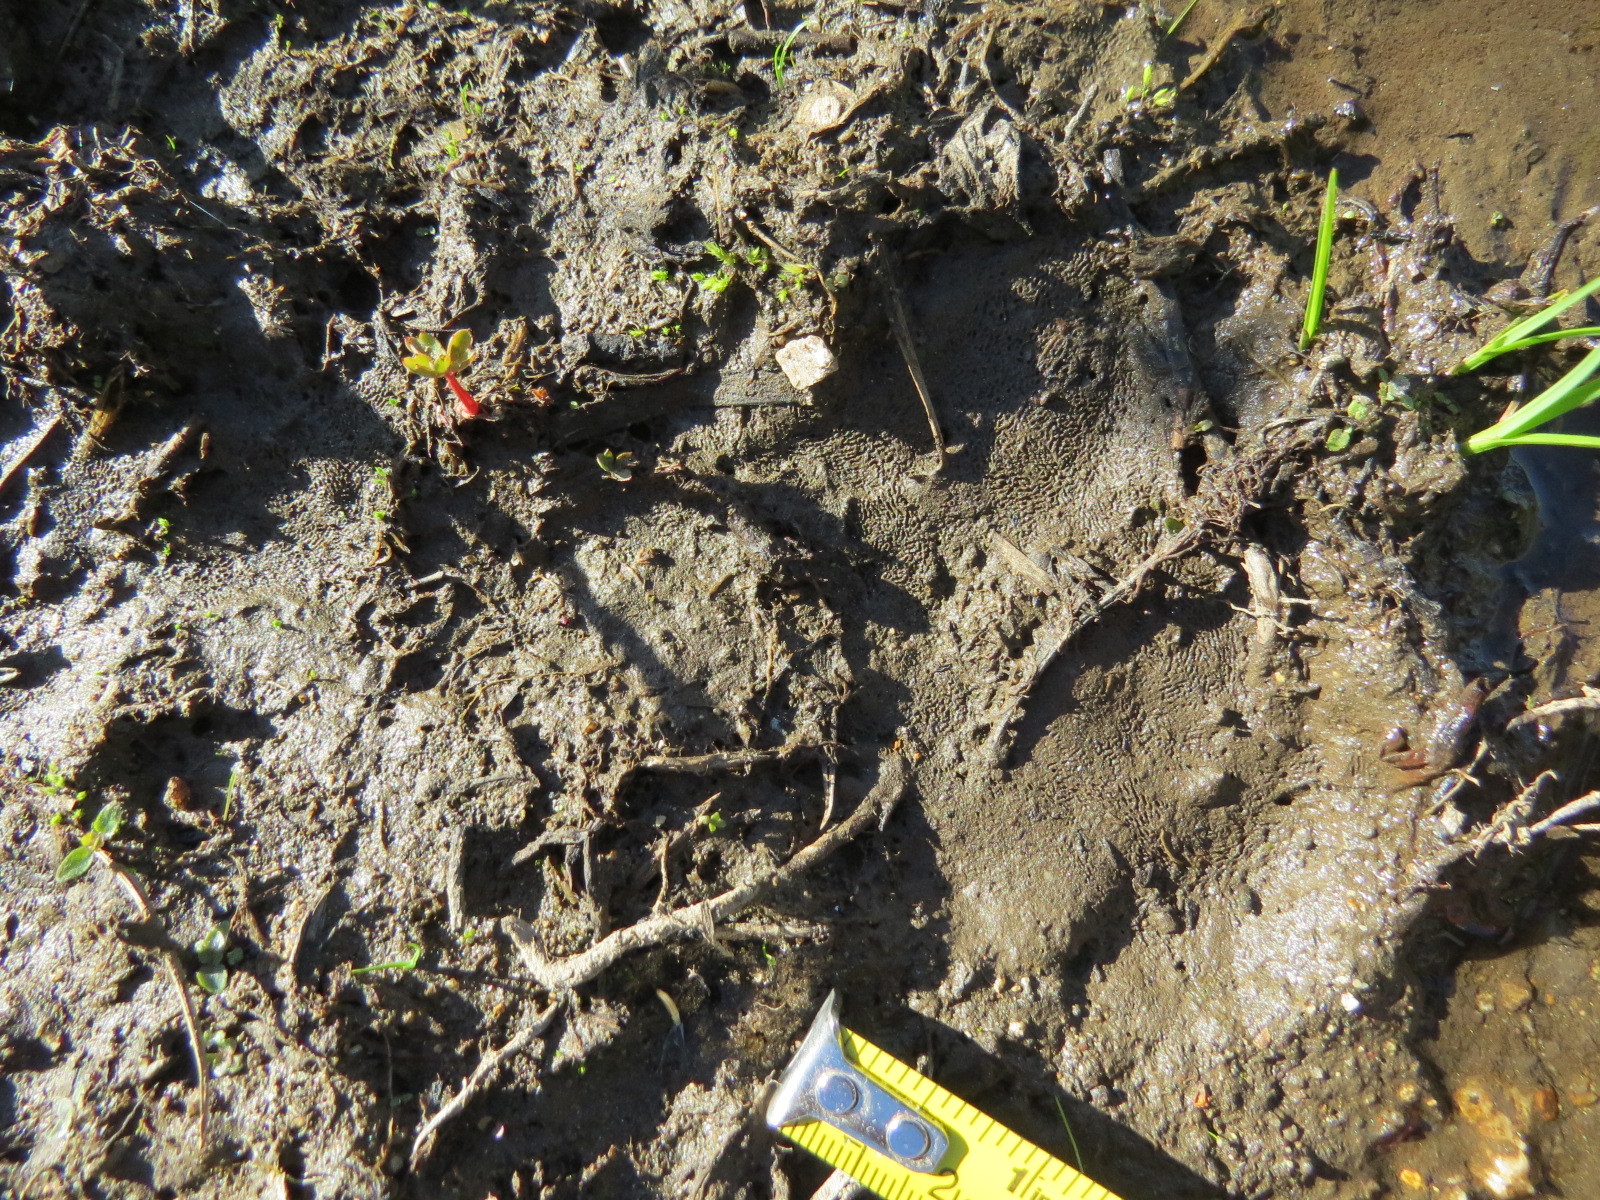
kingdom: Animalia
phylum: Chordata
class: Mammalia
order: Carnivora
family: Ursidae
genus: Ursus
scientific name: Ursus americanus
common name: American black bear
